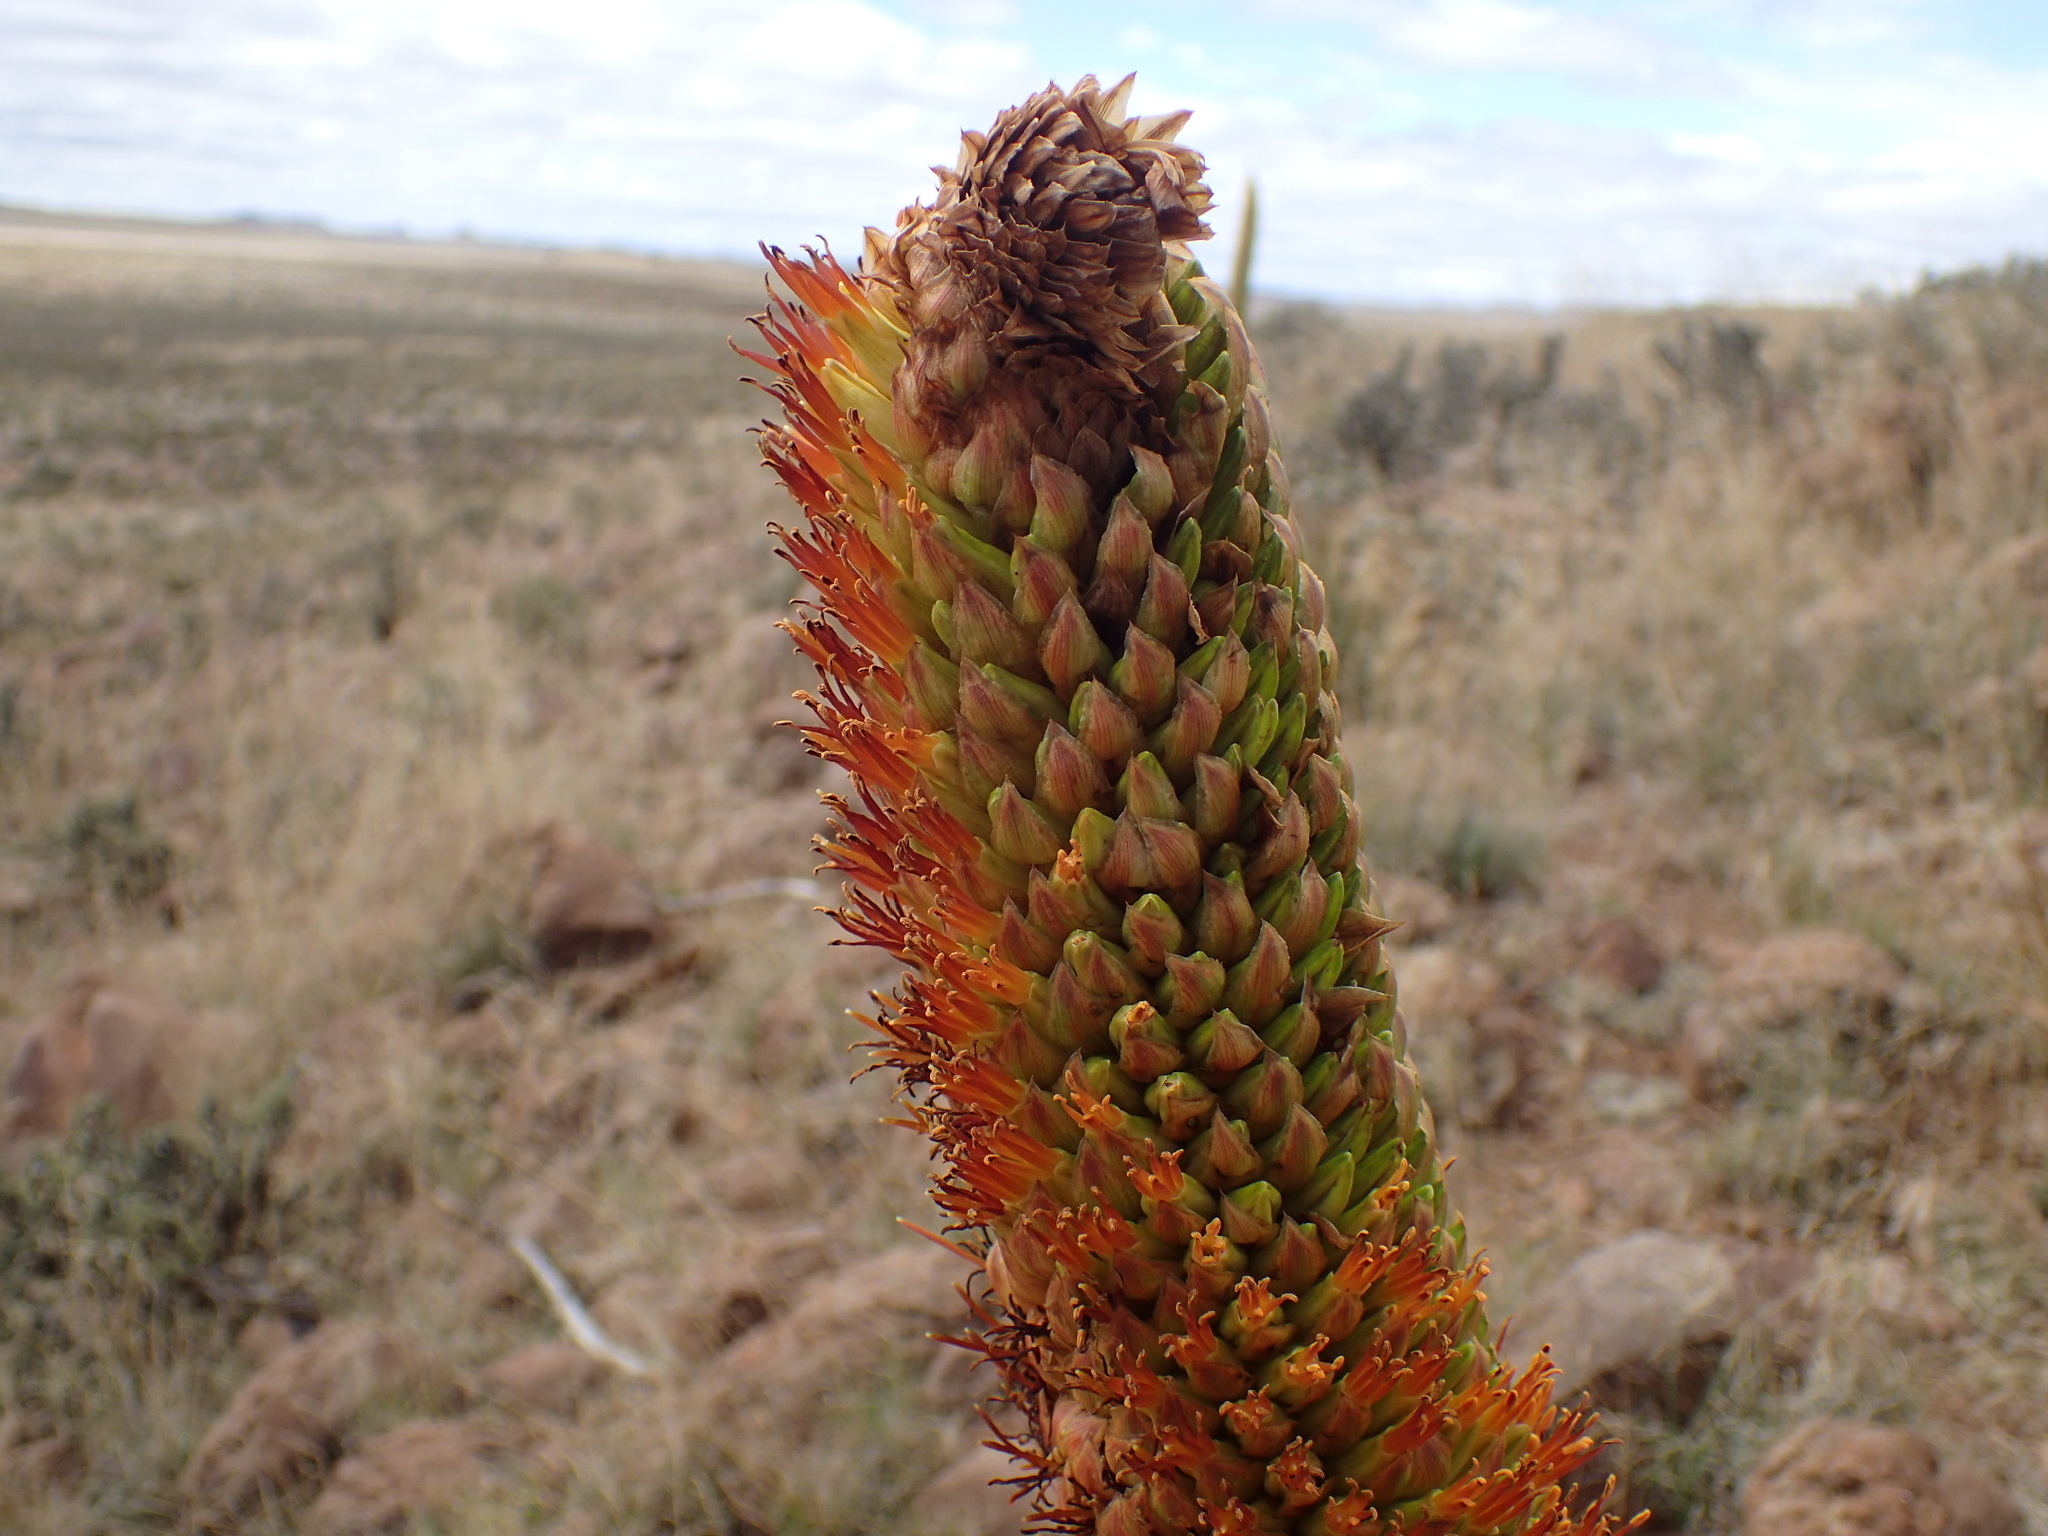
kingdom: Plantae
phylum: Tracheophyta
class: Liliopsida
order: Asparagales
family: Asphodelaceae
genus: Aloe
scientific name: Aloe broomii
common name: Berg alwyn
